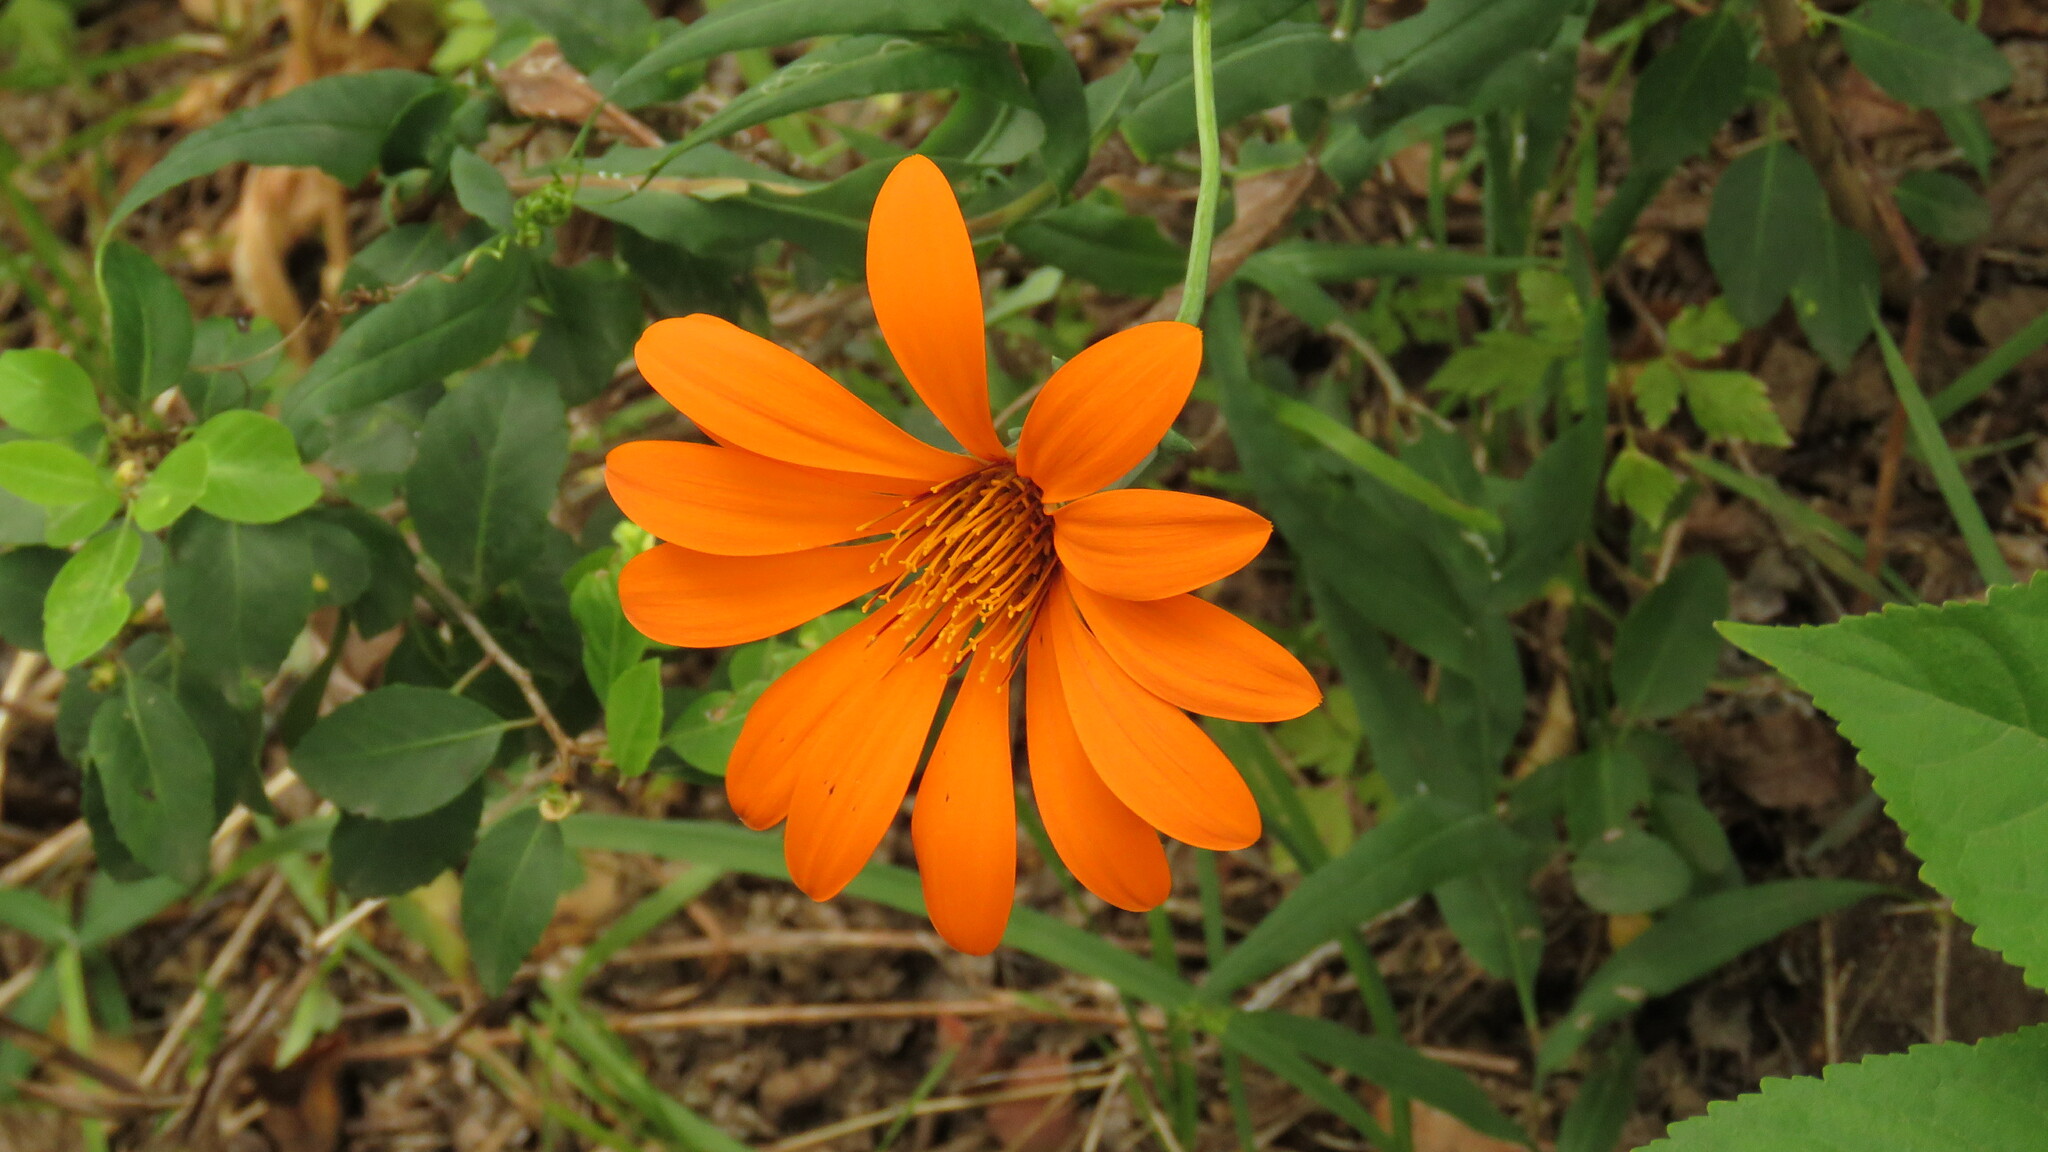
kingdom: Plantae
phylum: Tracheophyta
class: Magnoliopsida
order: Asterales
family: Asteraceae
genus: Mutisia
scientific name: Mutisia decurrens
